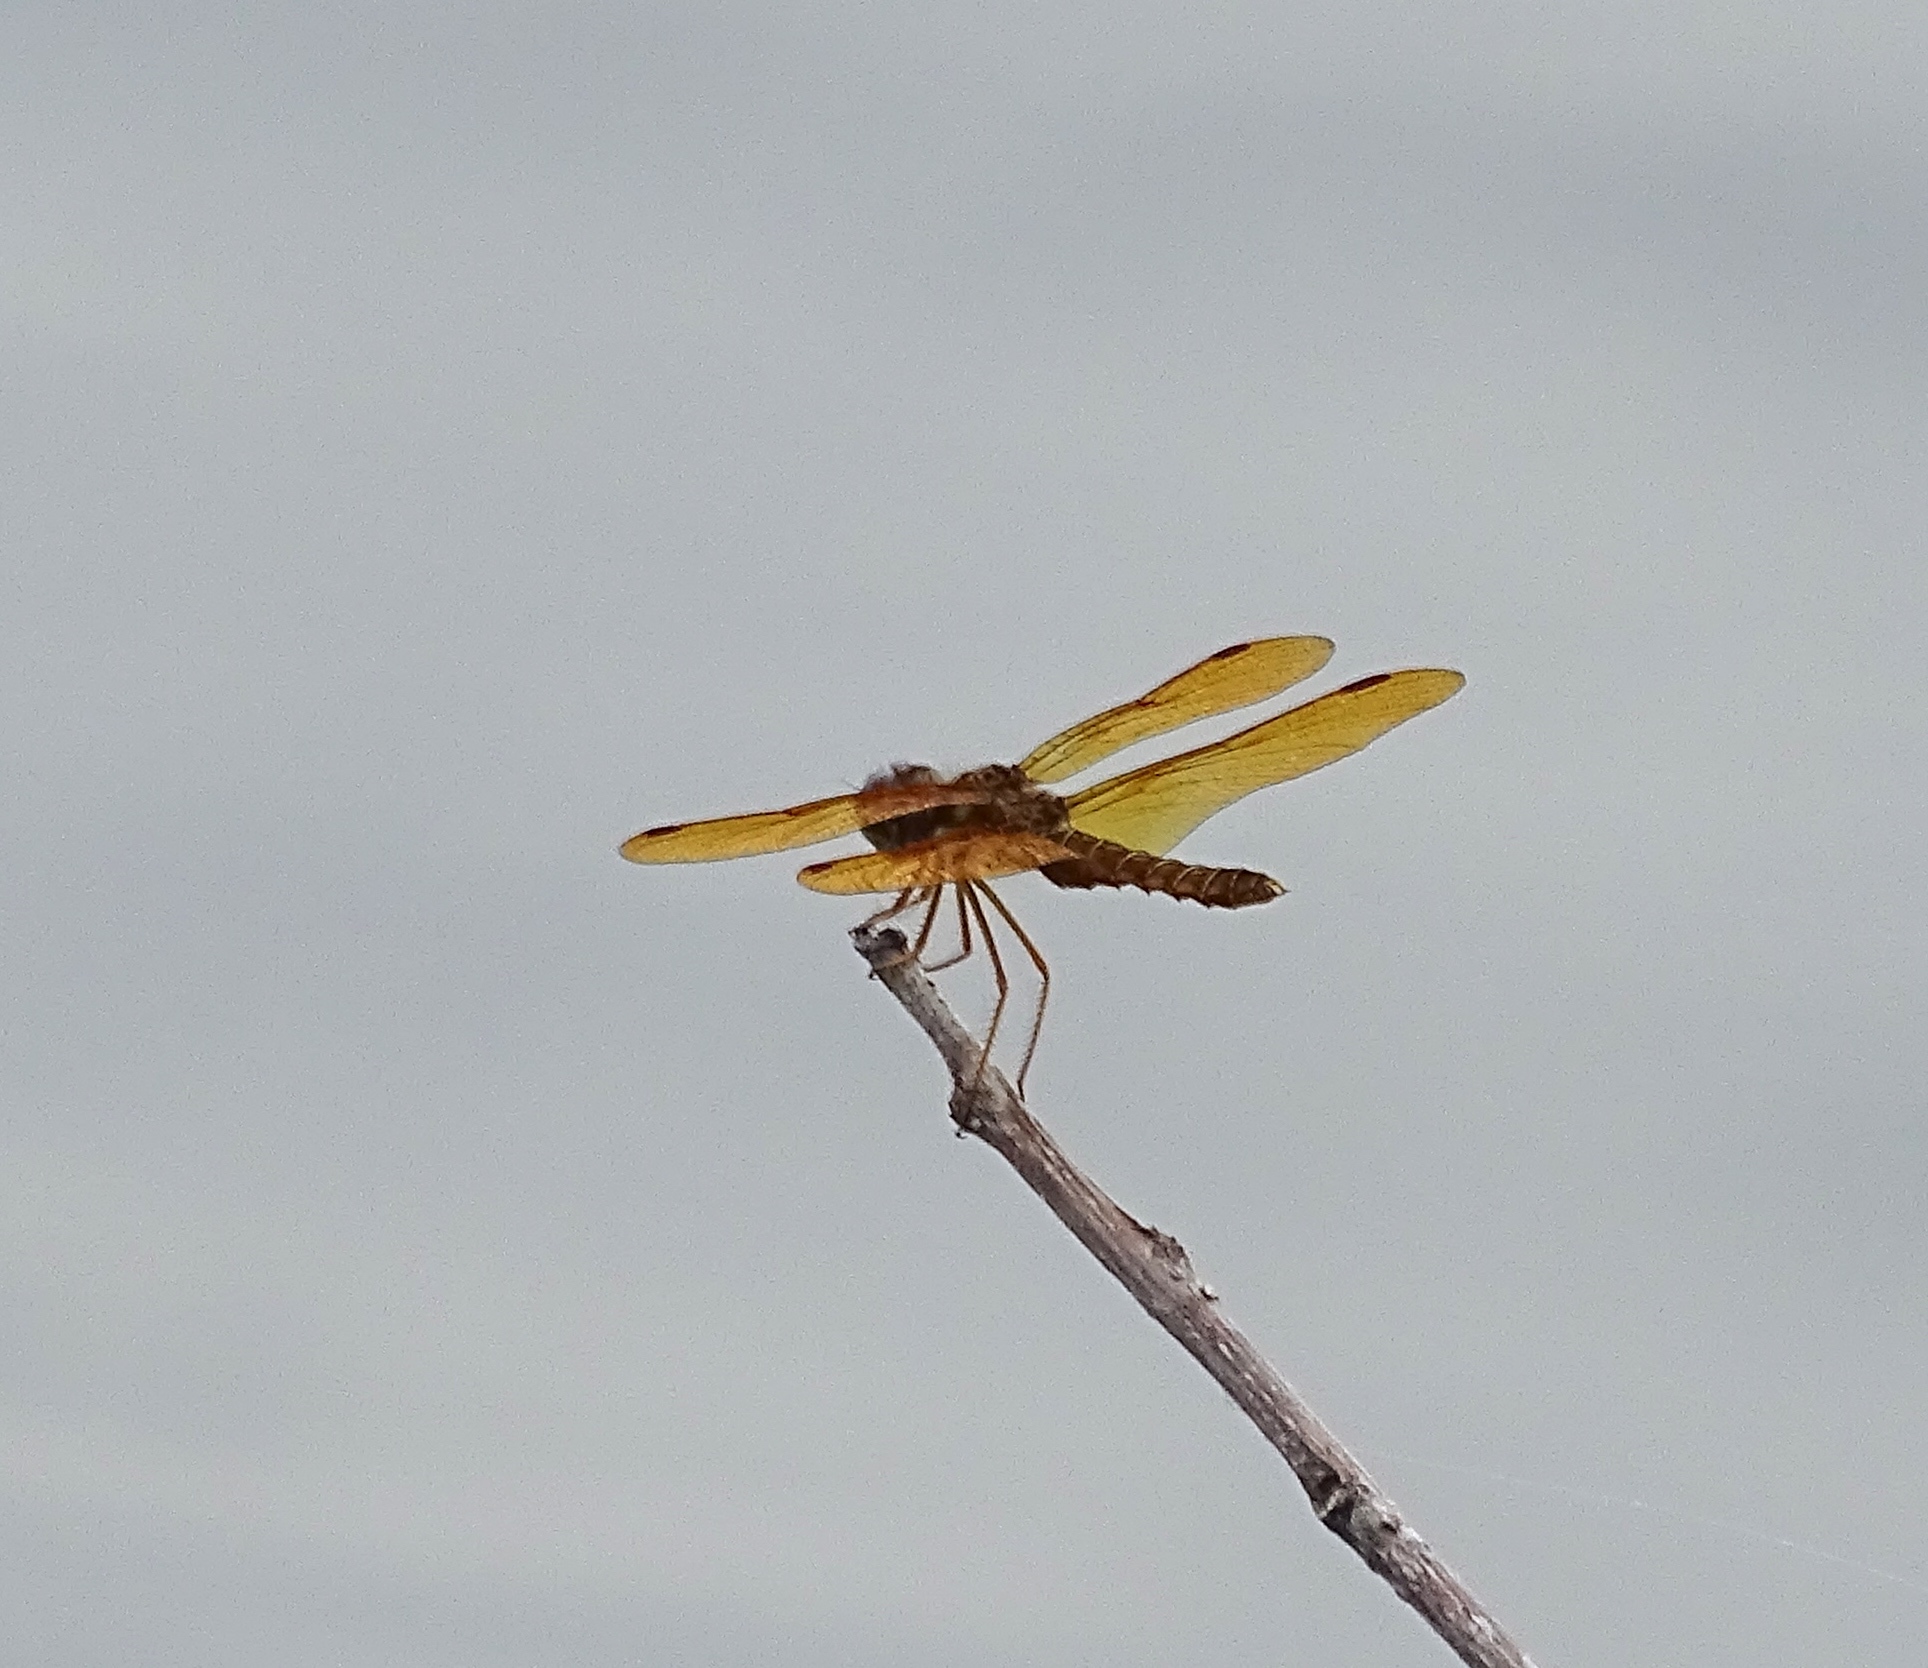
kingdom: Animalia
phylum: Arthropoda
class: Insecta
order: Odonata
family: Libellulidae
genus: Perithemis
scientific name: Perithemis tenera
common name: Eastern amberwing
